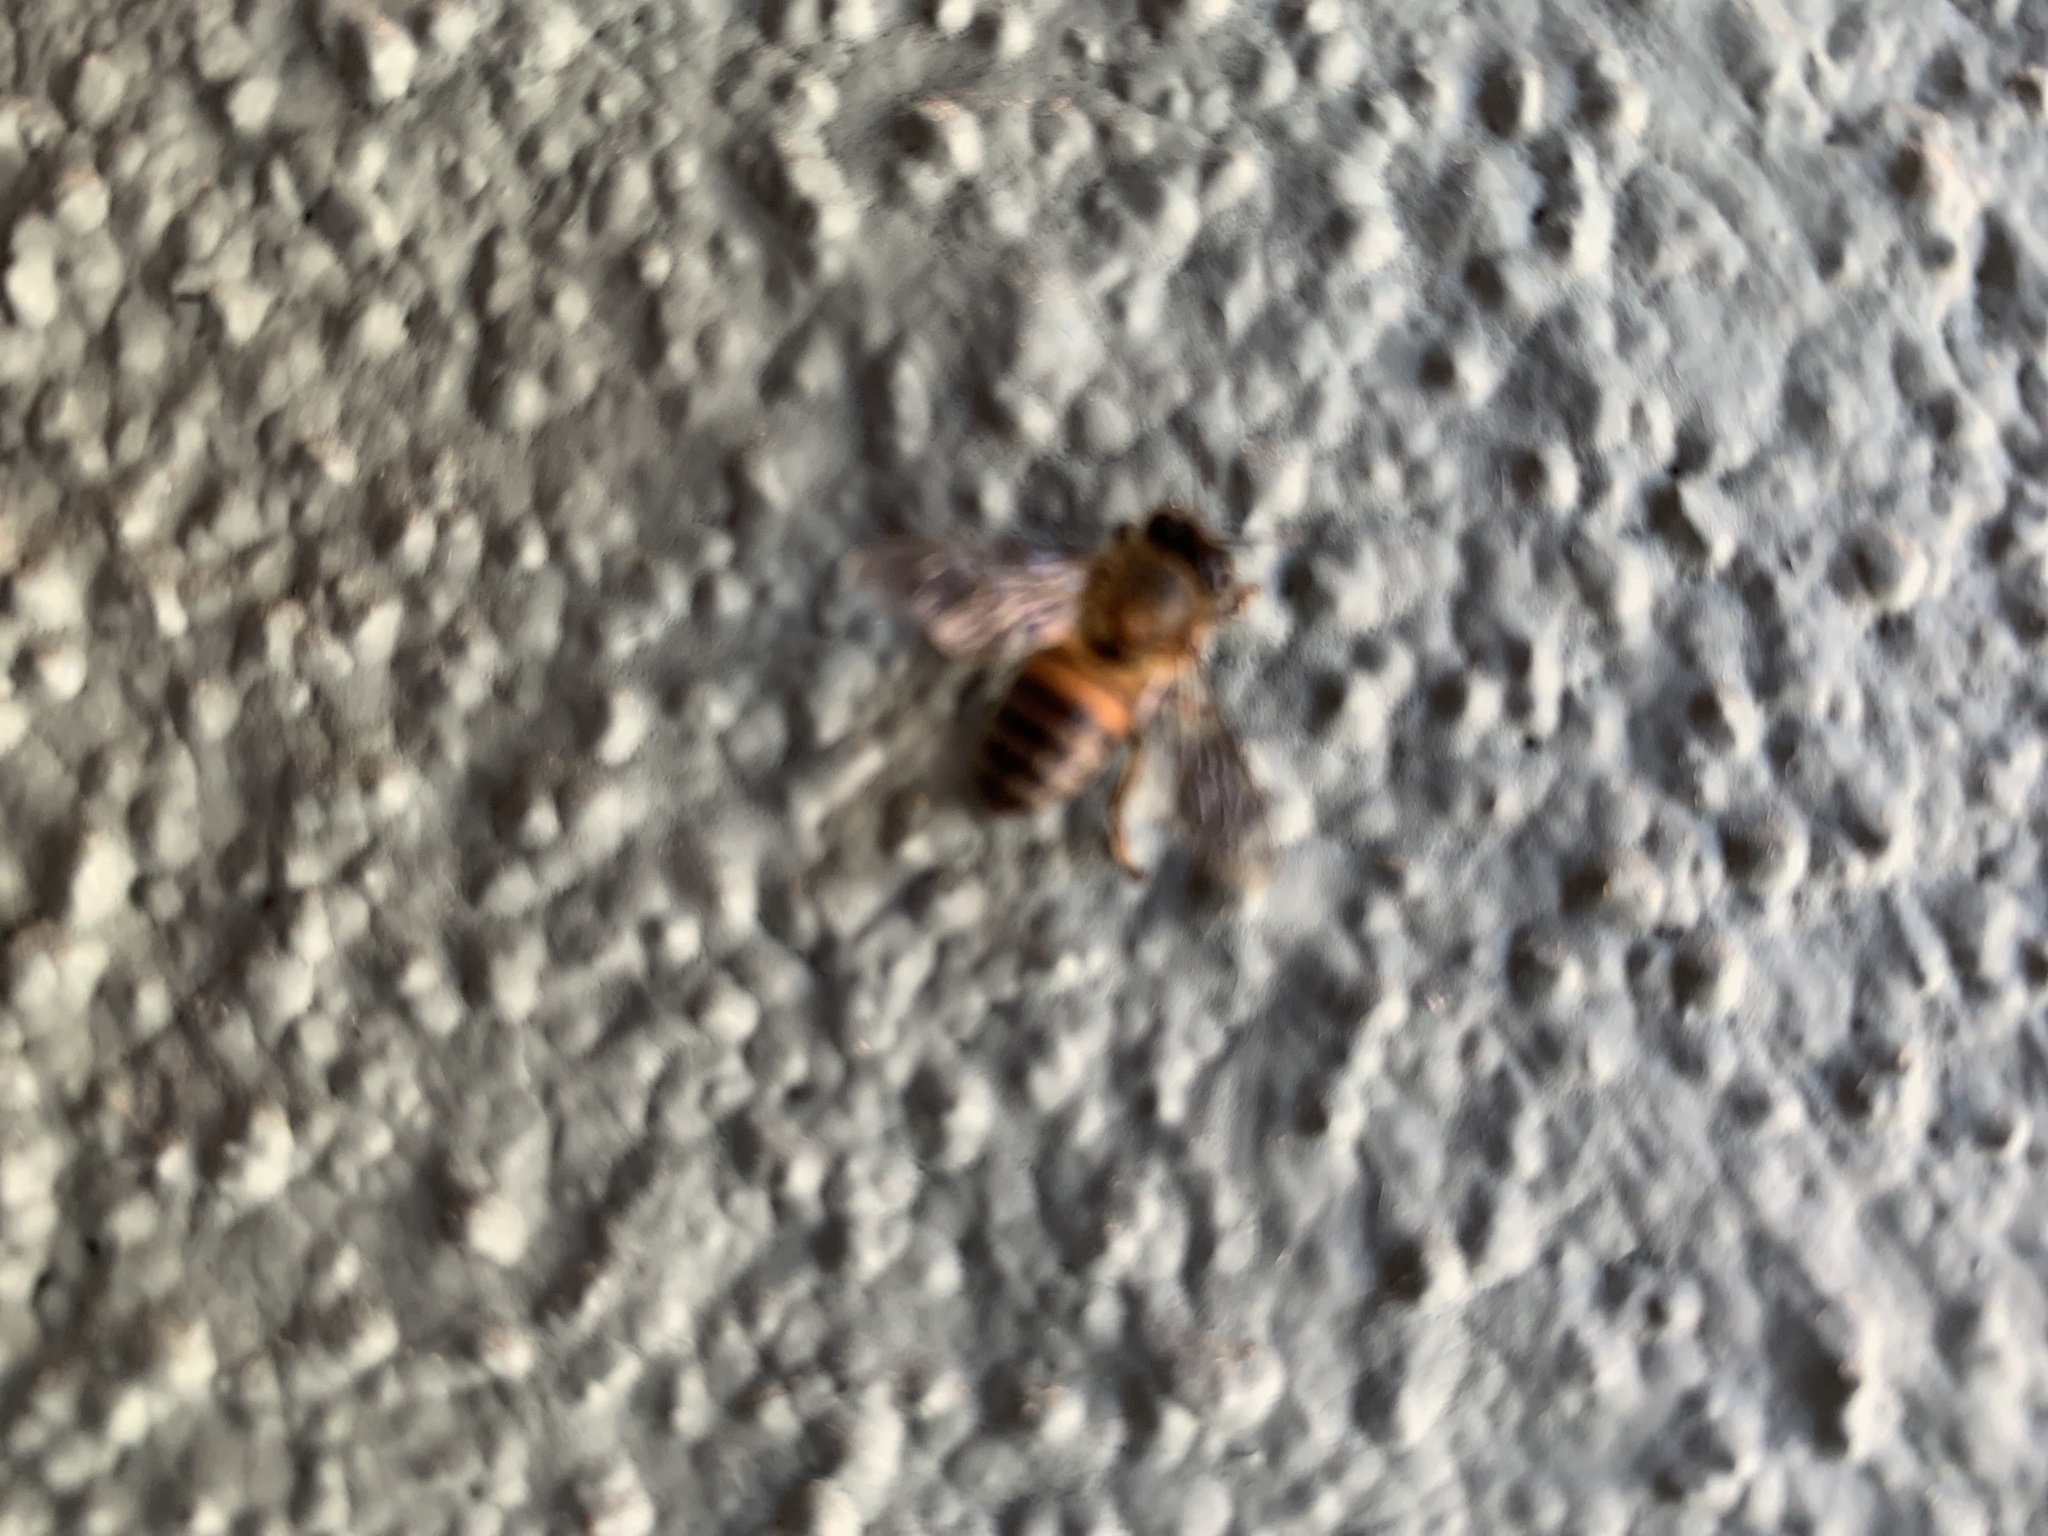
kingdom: Animalia
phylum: Arthropoda
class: Insecta
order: Hymenoptera
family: Apidae
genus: Apis
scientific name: Apis mellifera
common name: Honey bee
